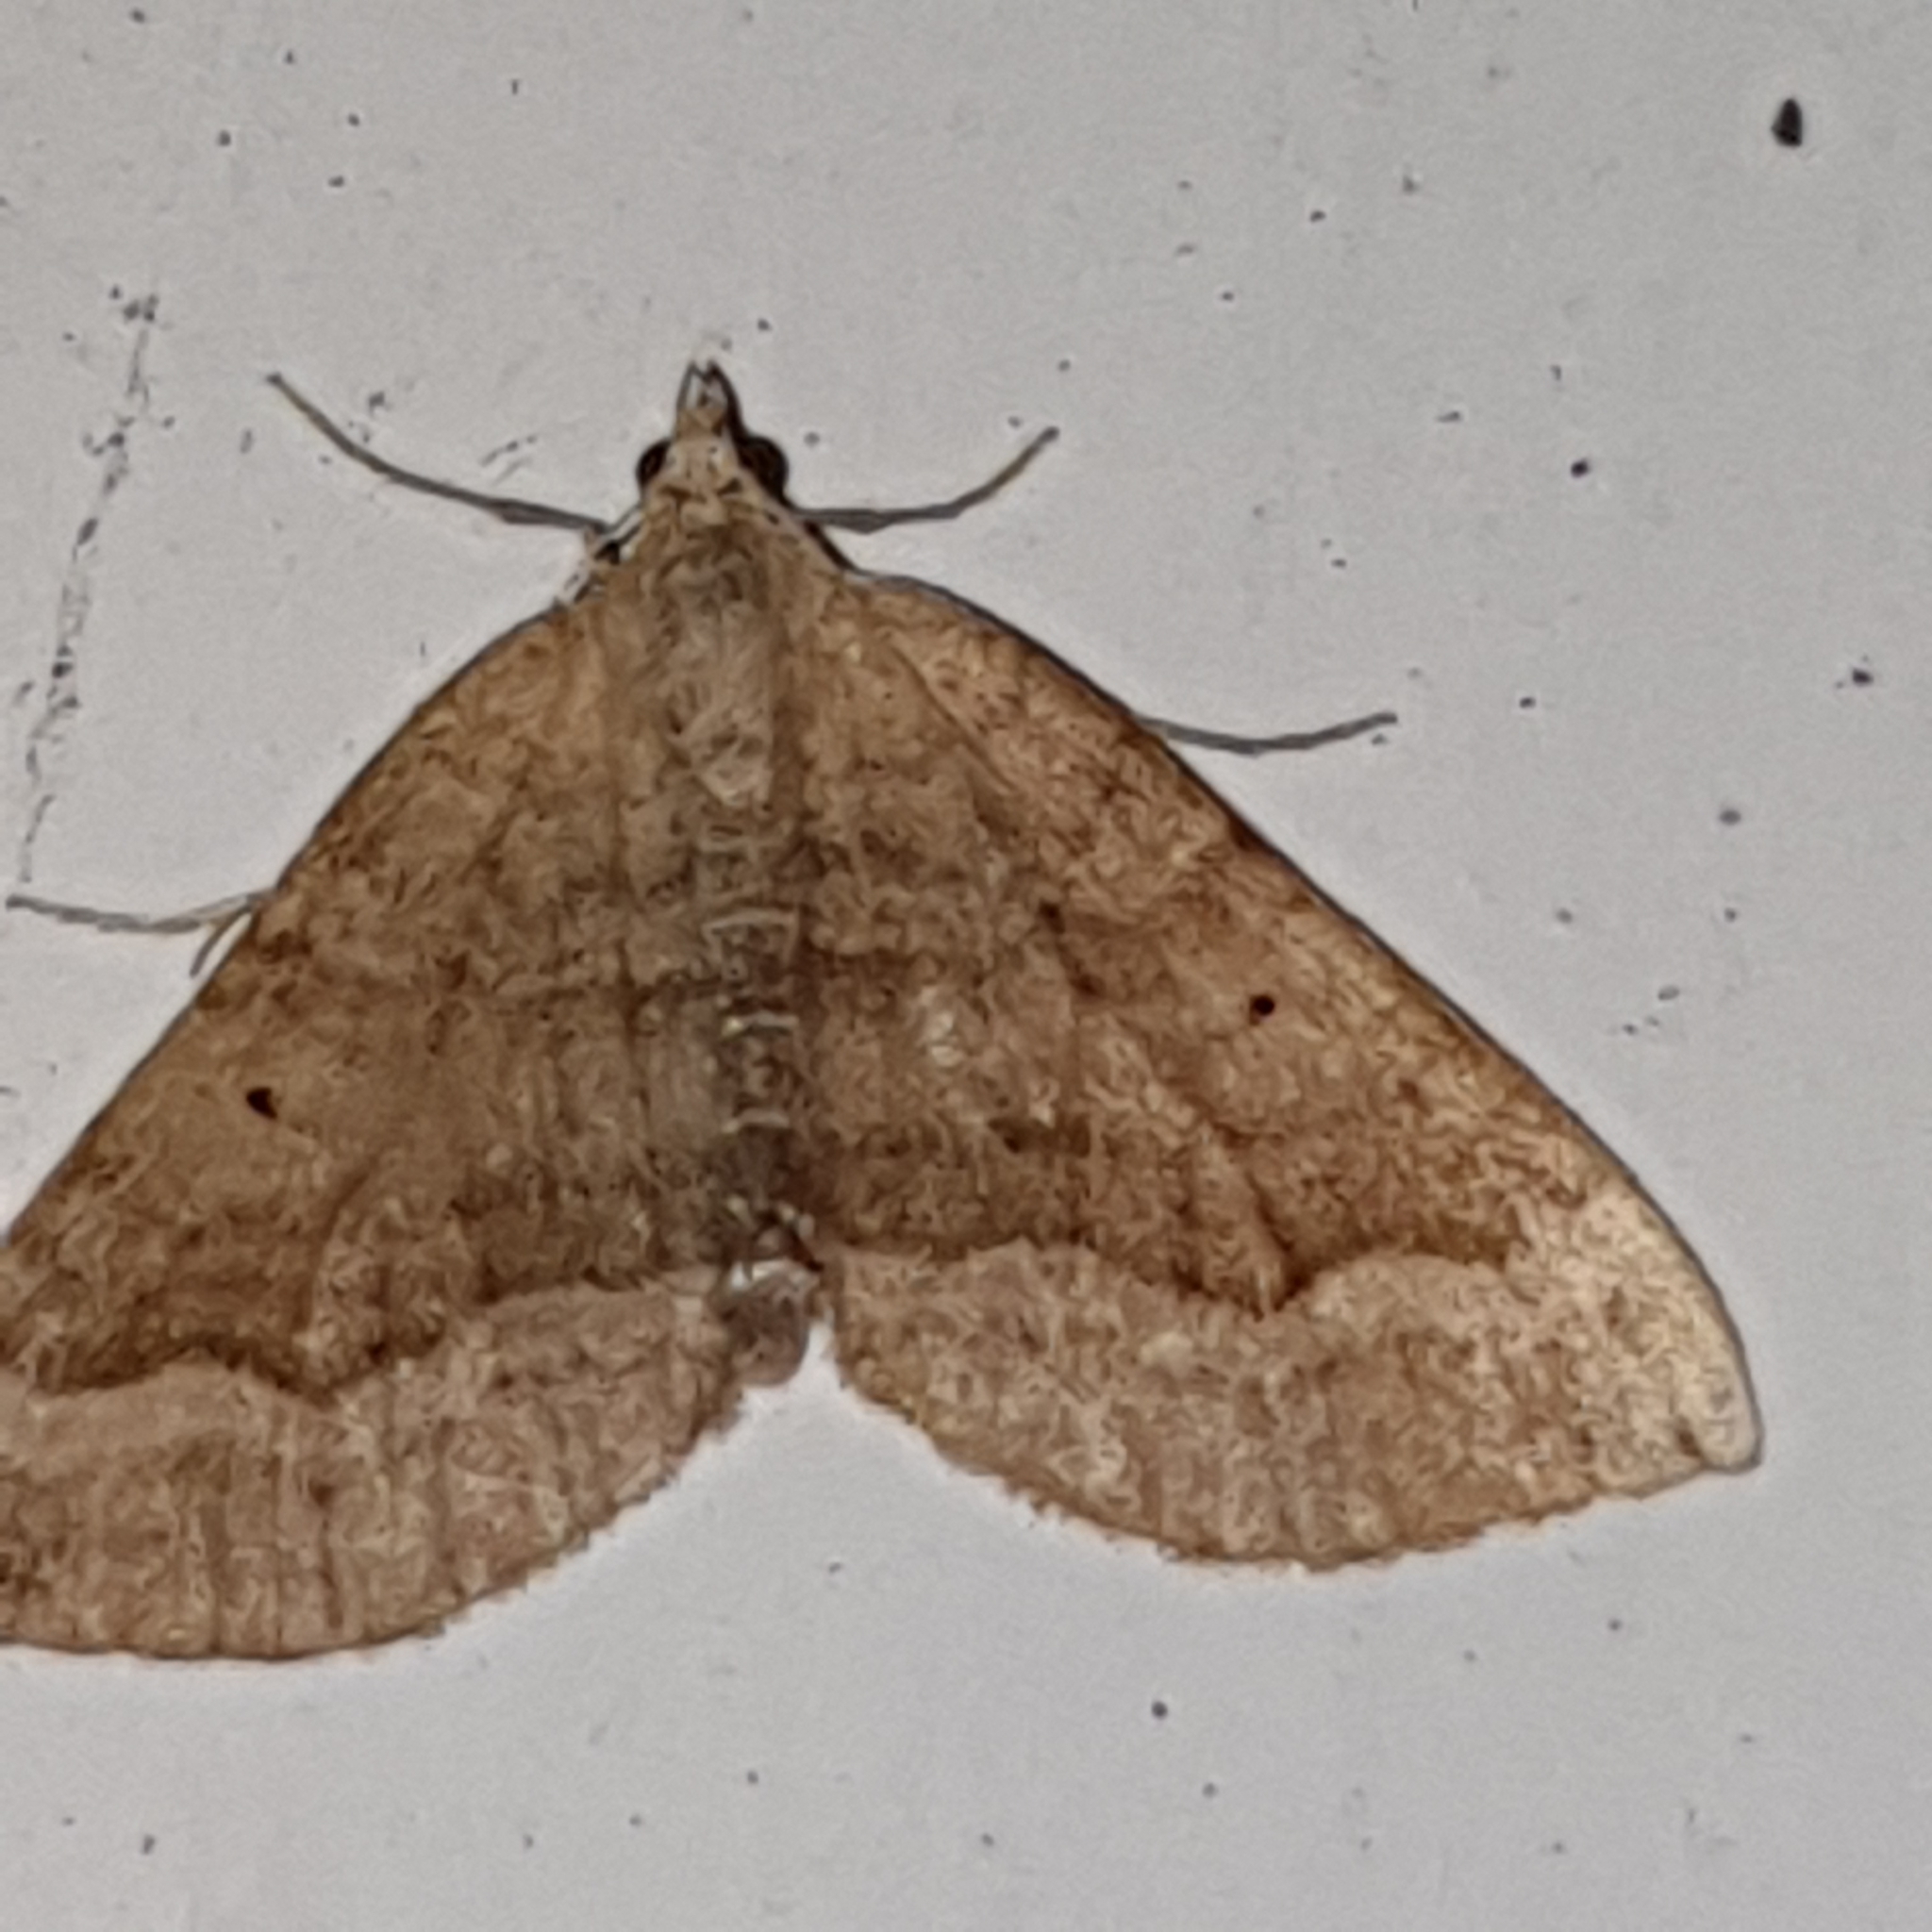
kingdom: Animalia
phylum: Arthropoda
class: Insecta
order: Lepidoptera
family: Geometridae
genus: Scotopteryx
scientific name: Scotopteryx chenopodiata
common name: Shaded broad-bar
